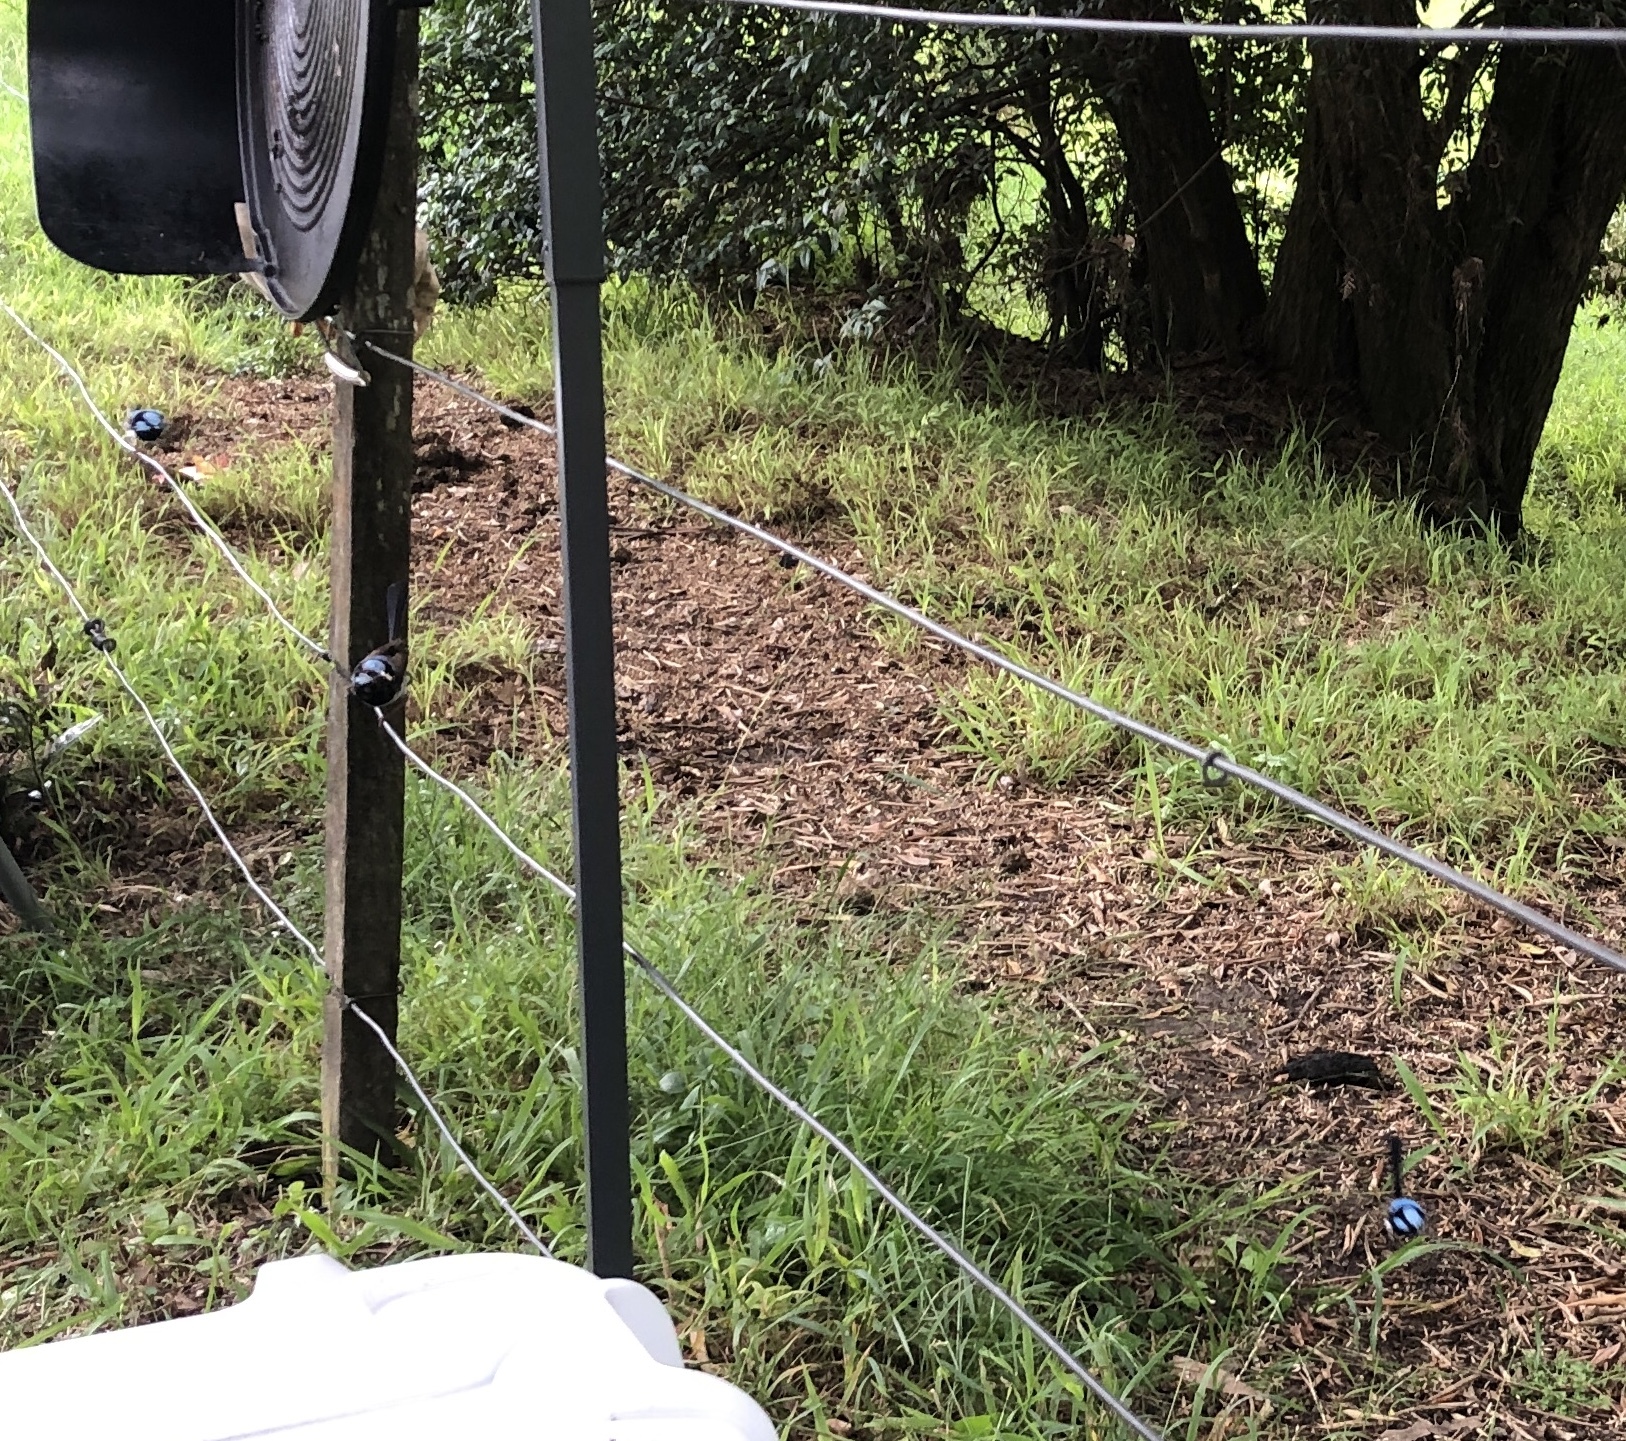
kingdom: Animalia
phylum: Chordata
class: Aves
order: Passeriformes
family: Maluridae
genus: Malurus
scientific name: Malurus cyaneus
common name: Superb fairywren
